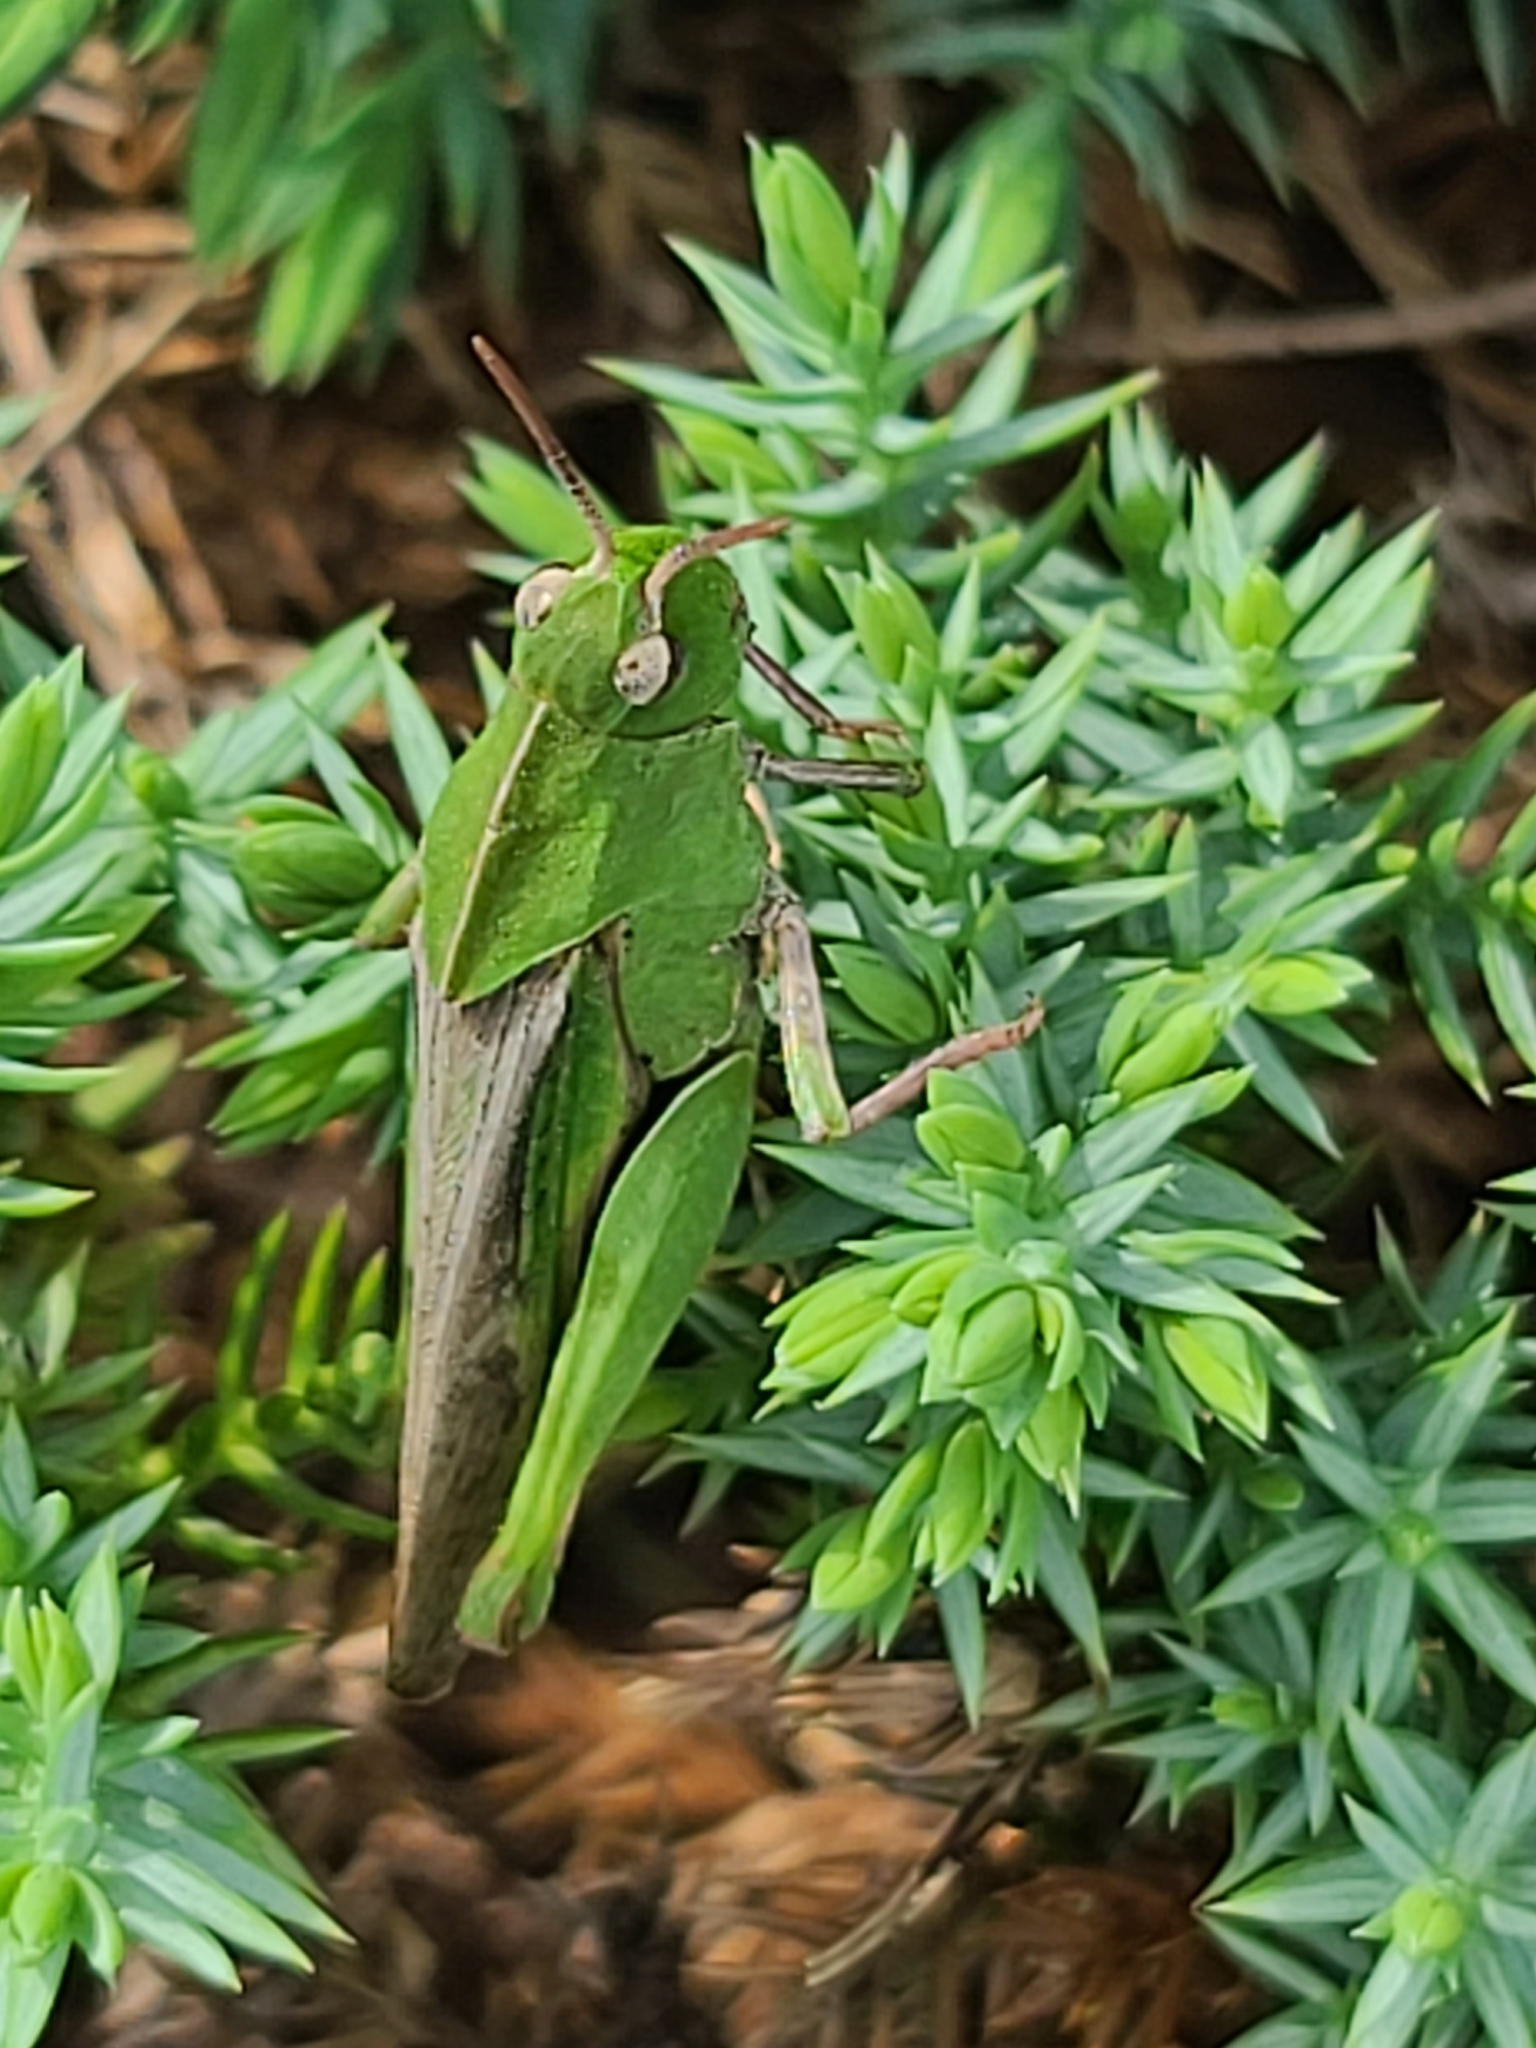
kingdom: Animalia
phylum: Arthropoda
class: Insecta
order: Orthoptera
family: Acrididae
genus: Chortophaga
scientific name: Chortophaga viridifasciata
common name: Green-striped grasshopper
